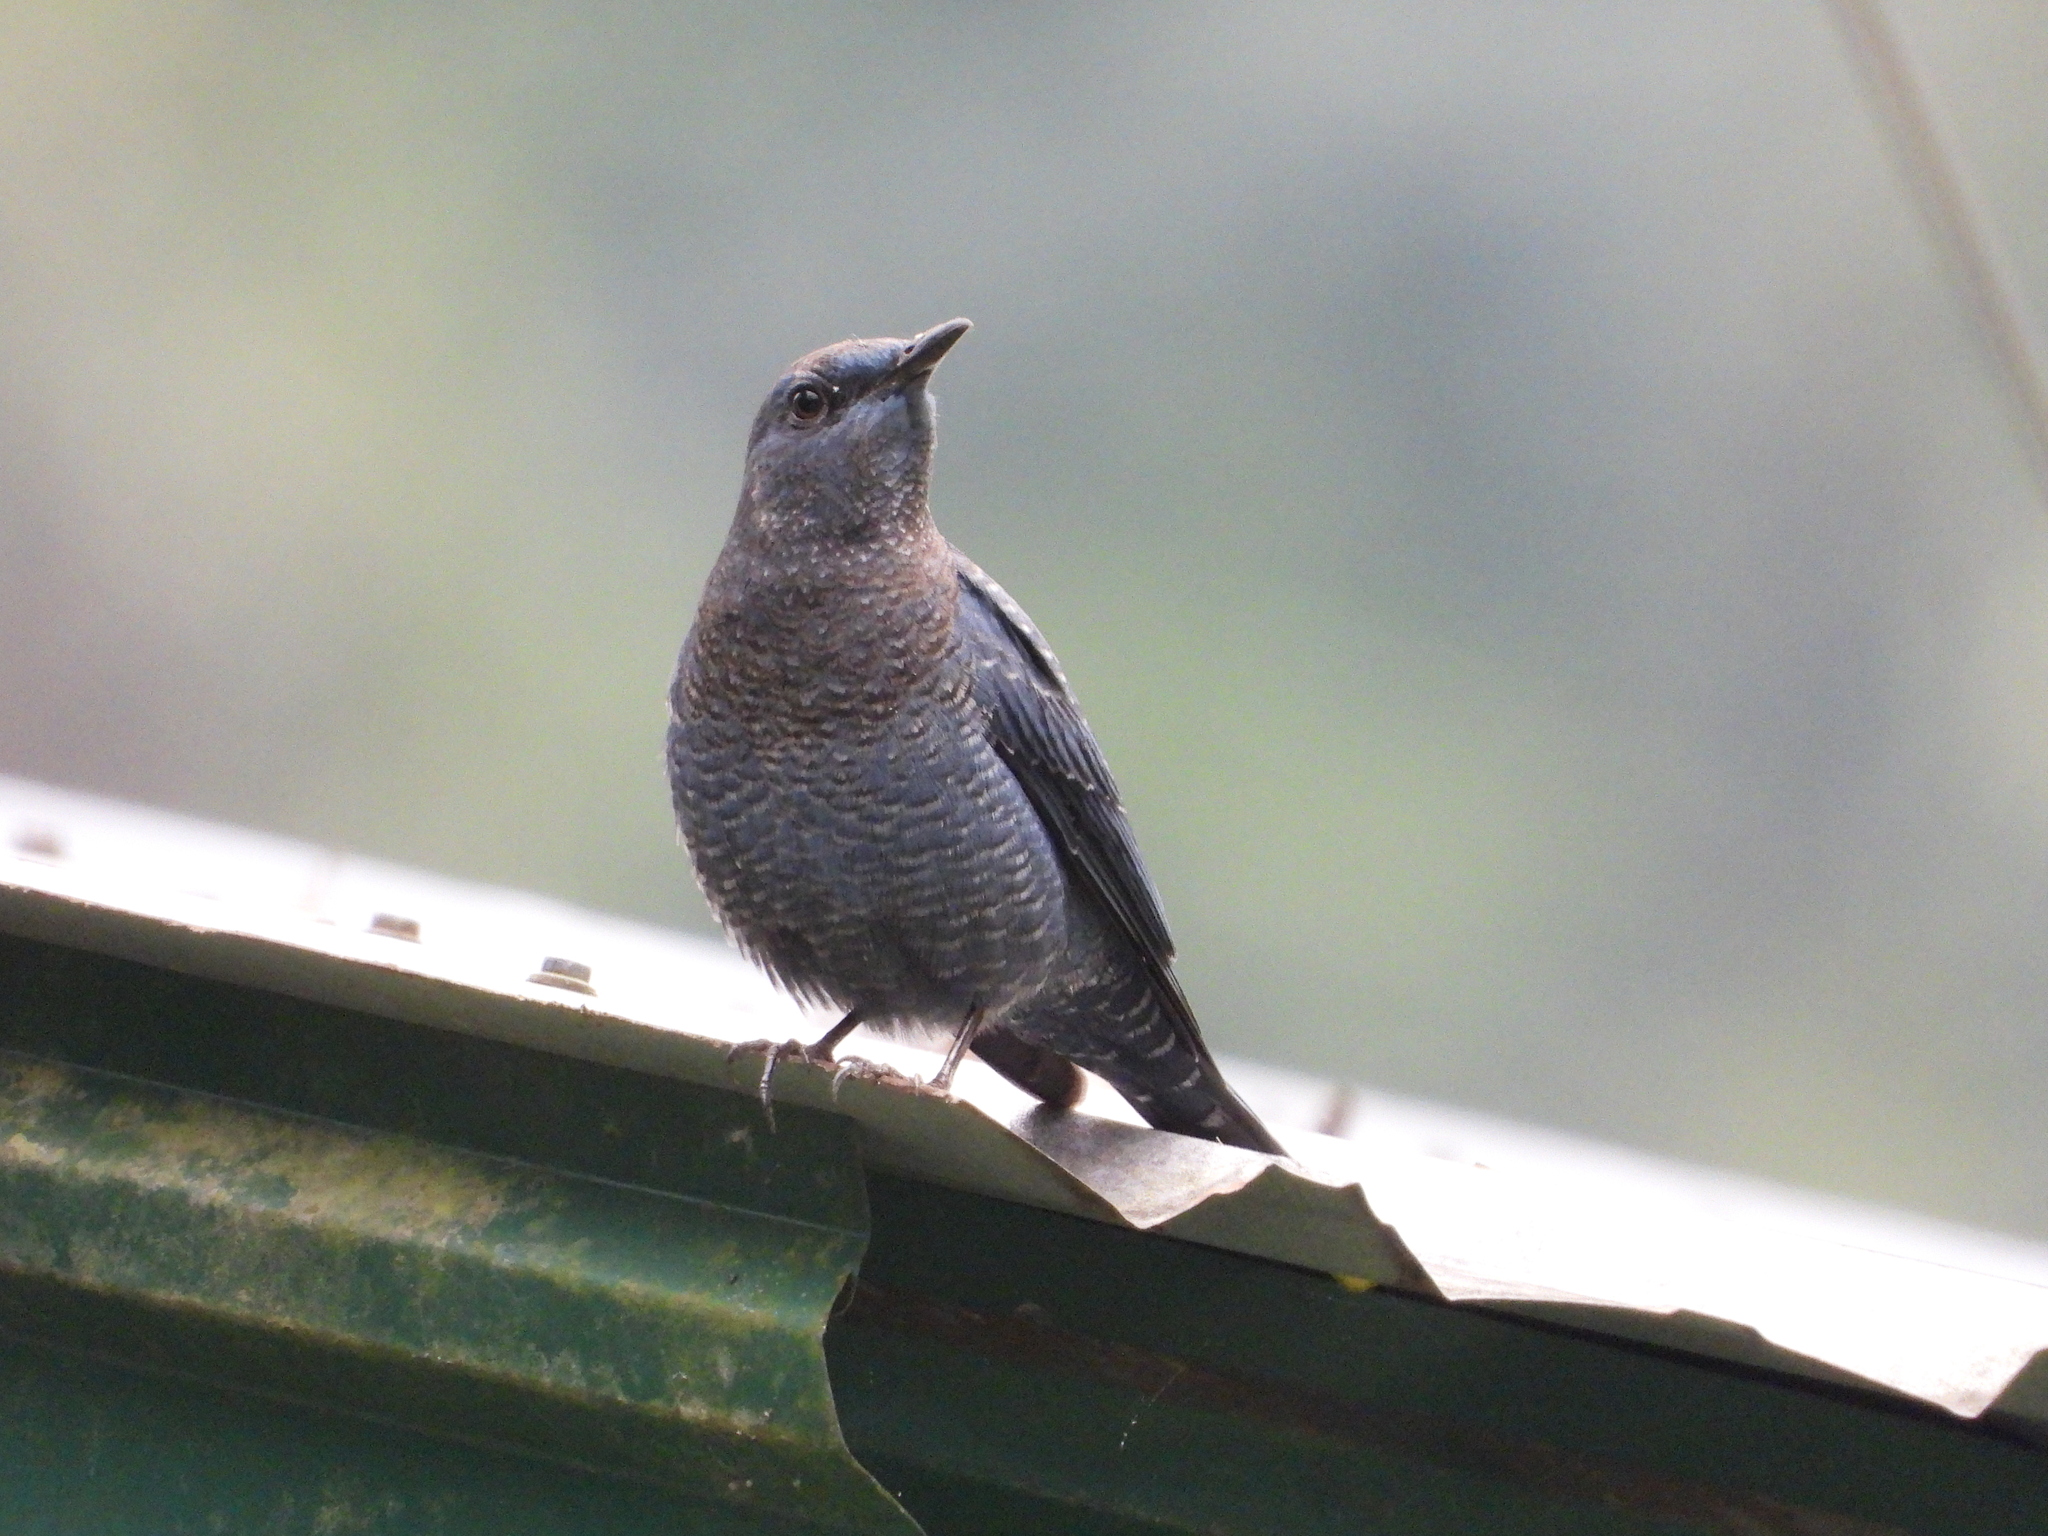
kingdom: Animalia
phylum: Chordata
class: Aves
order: Passeriformes
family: Muscicapidae
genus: Monticola
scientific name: Monticola solitarius
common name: Blue rock thrush
